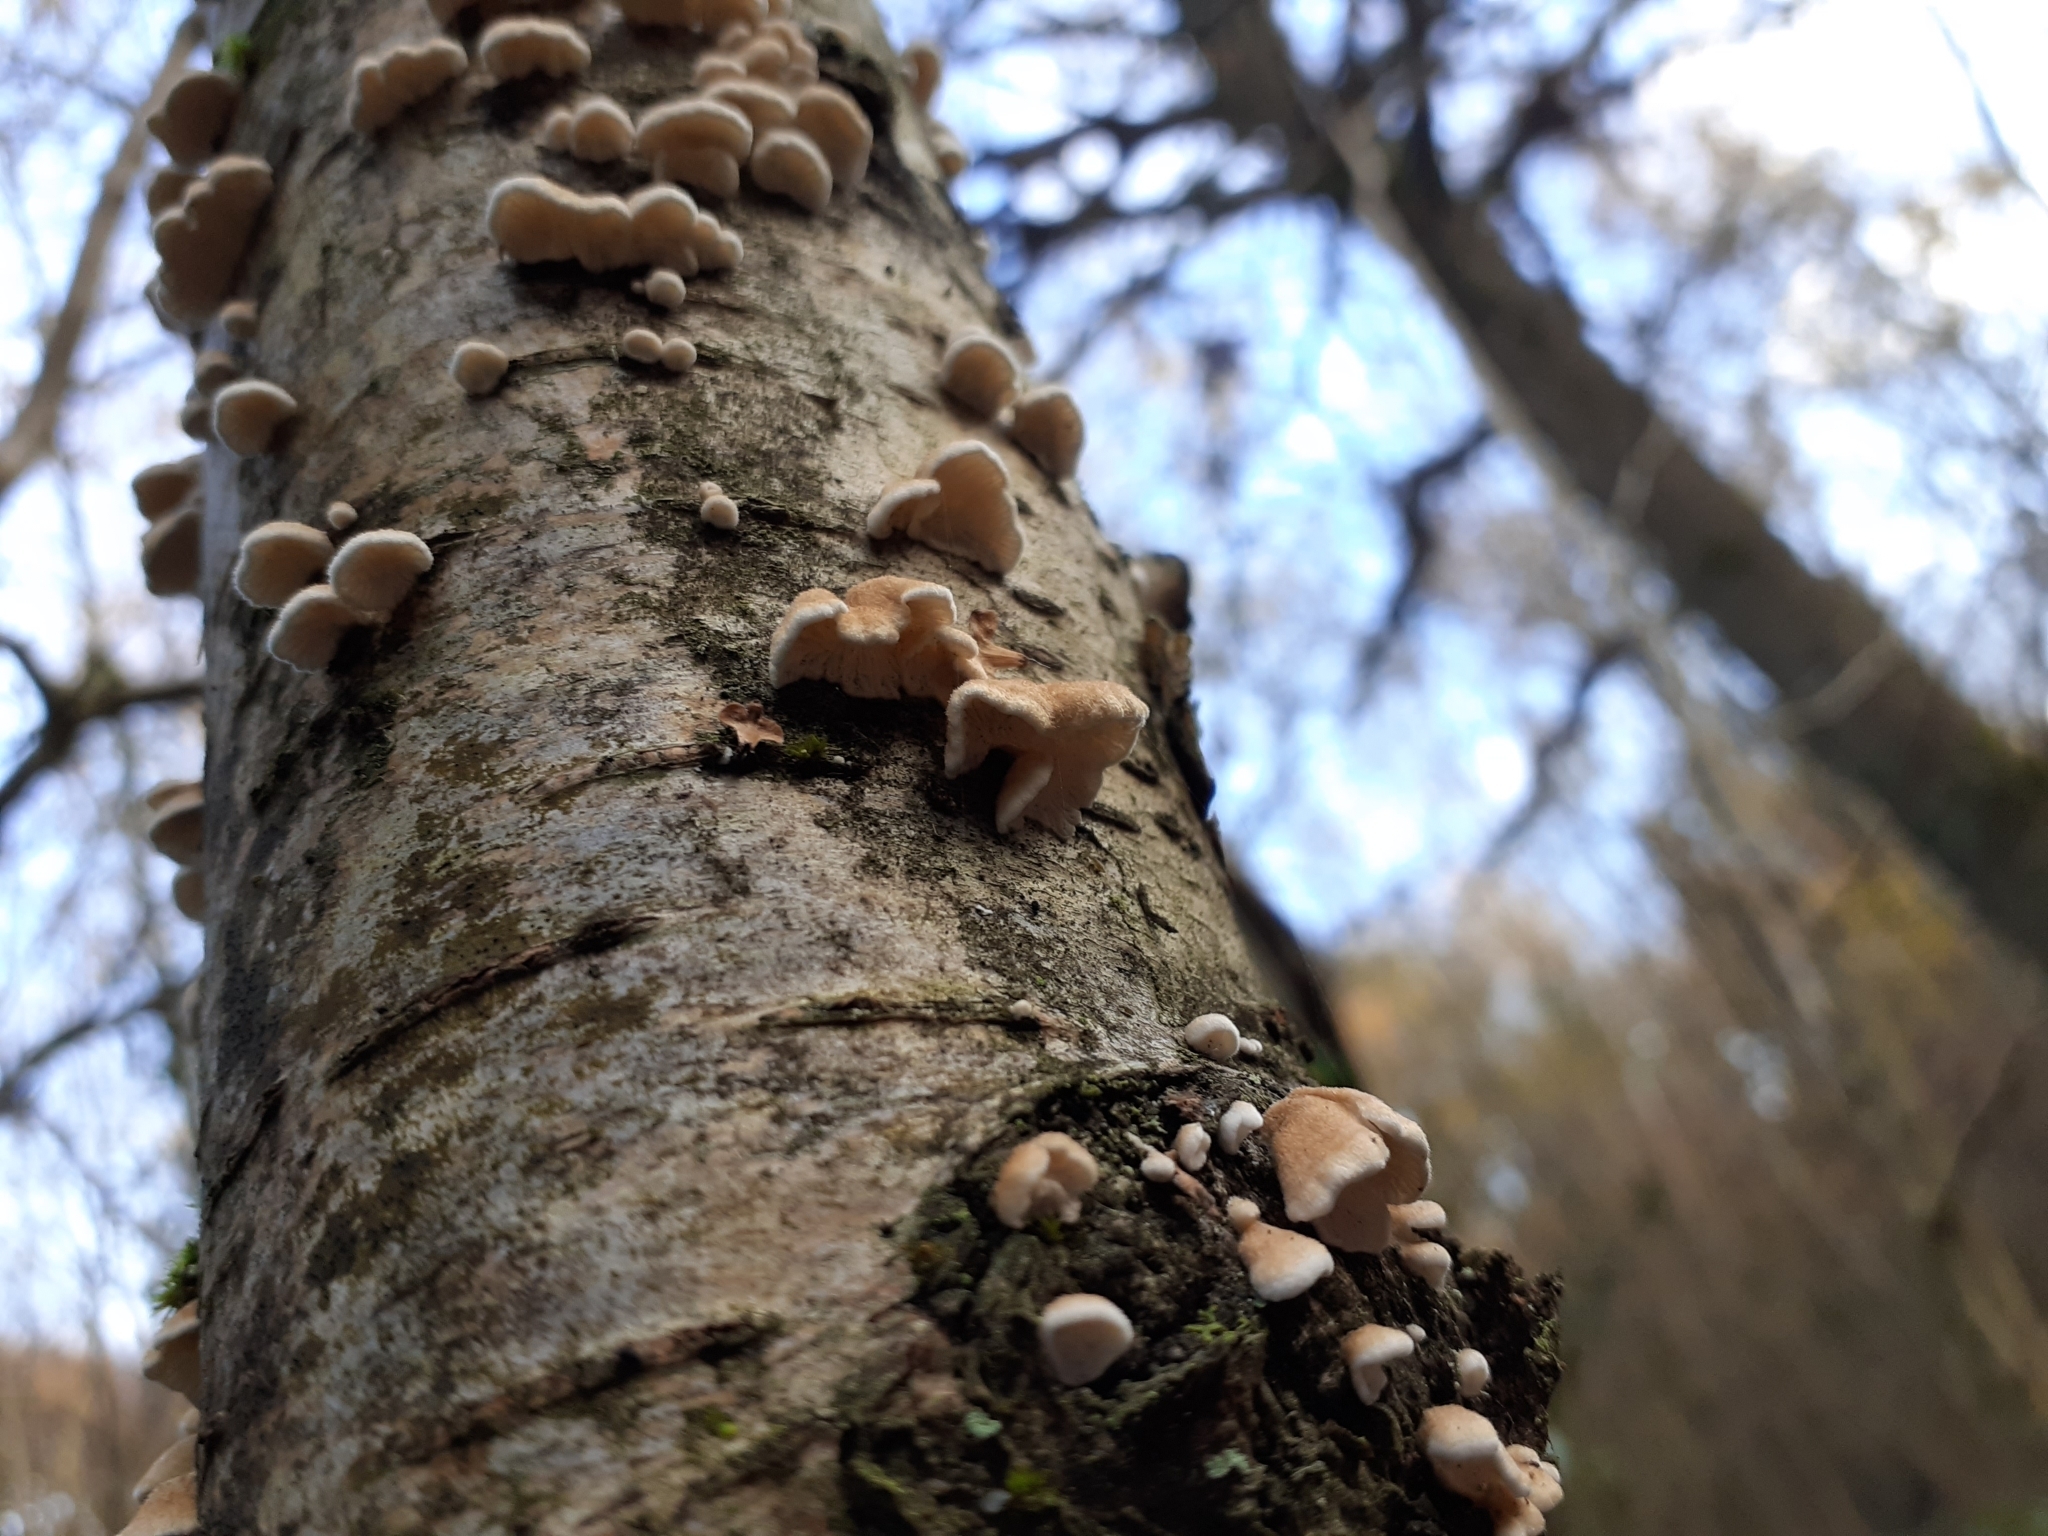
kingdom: Fungi
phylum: Basidiomycota
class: Agaricomycetes
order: Amylocorticiales
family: Amylocorticiaceae
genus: Plicaturopsis
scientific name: Plicaturopsis crispa
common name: Crimped gill
